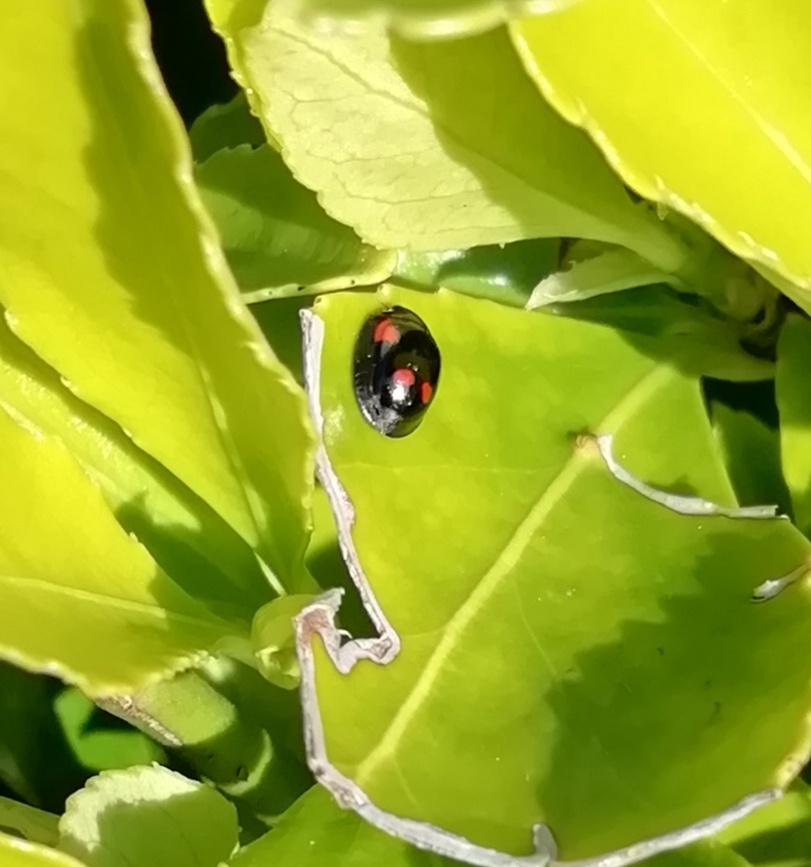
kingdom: Animalia
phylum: Arthropoda
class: Insecta
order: Coleoptera
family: Coccinellidae
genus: Brumus
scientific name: Brumus quadripustulatus
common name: Ladybird beetle
